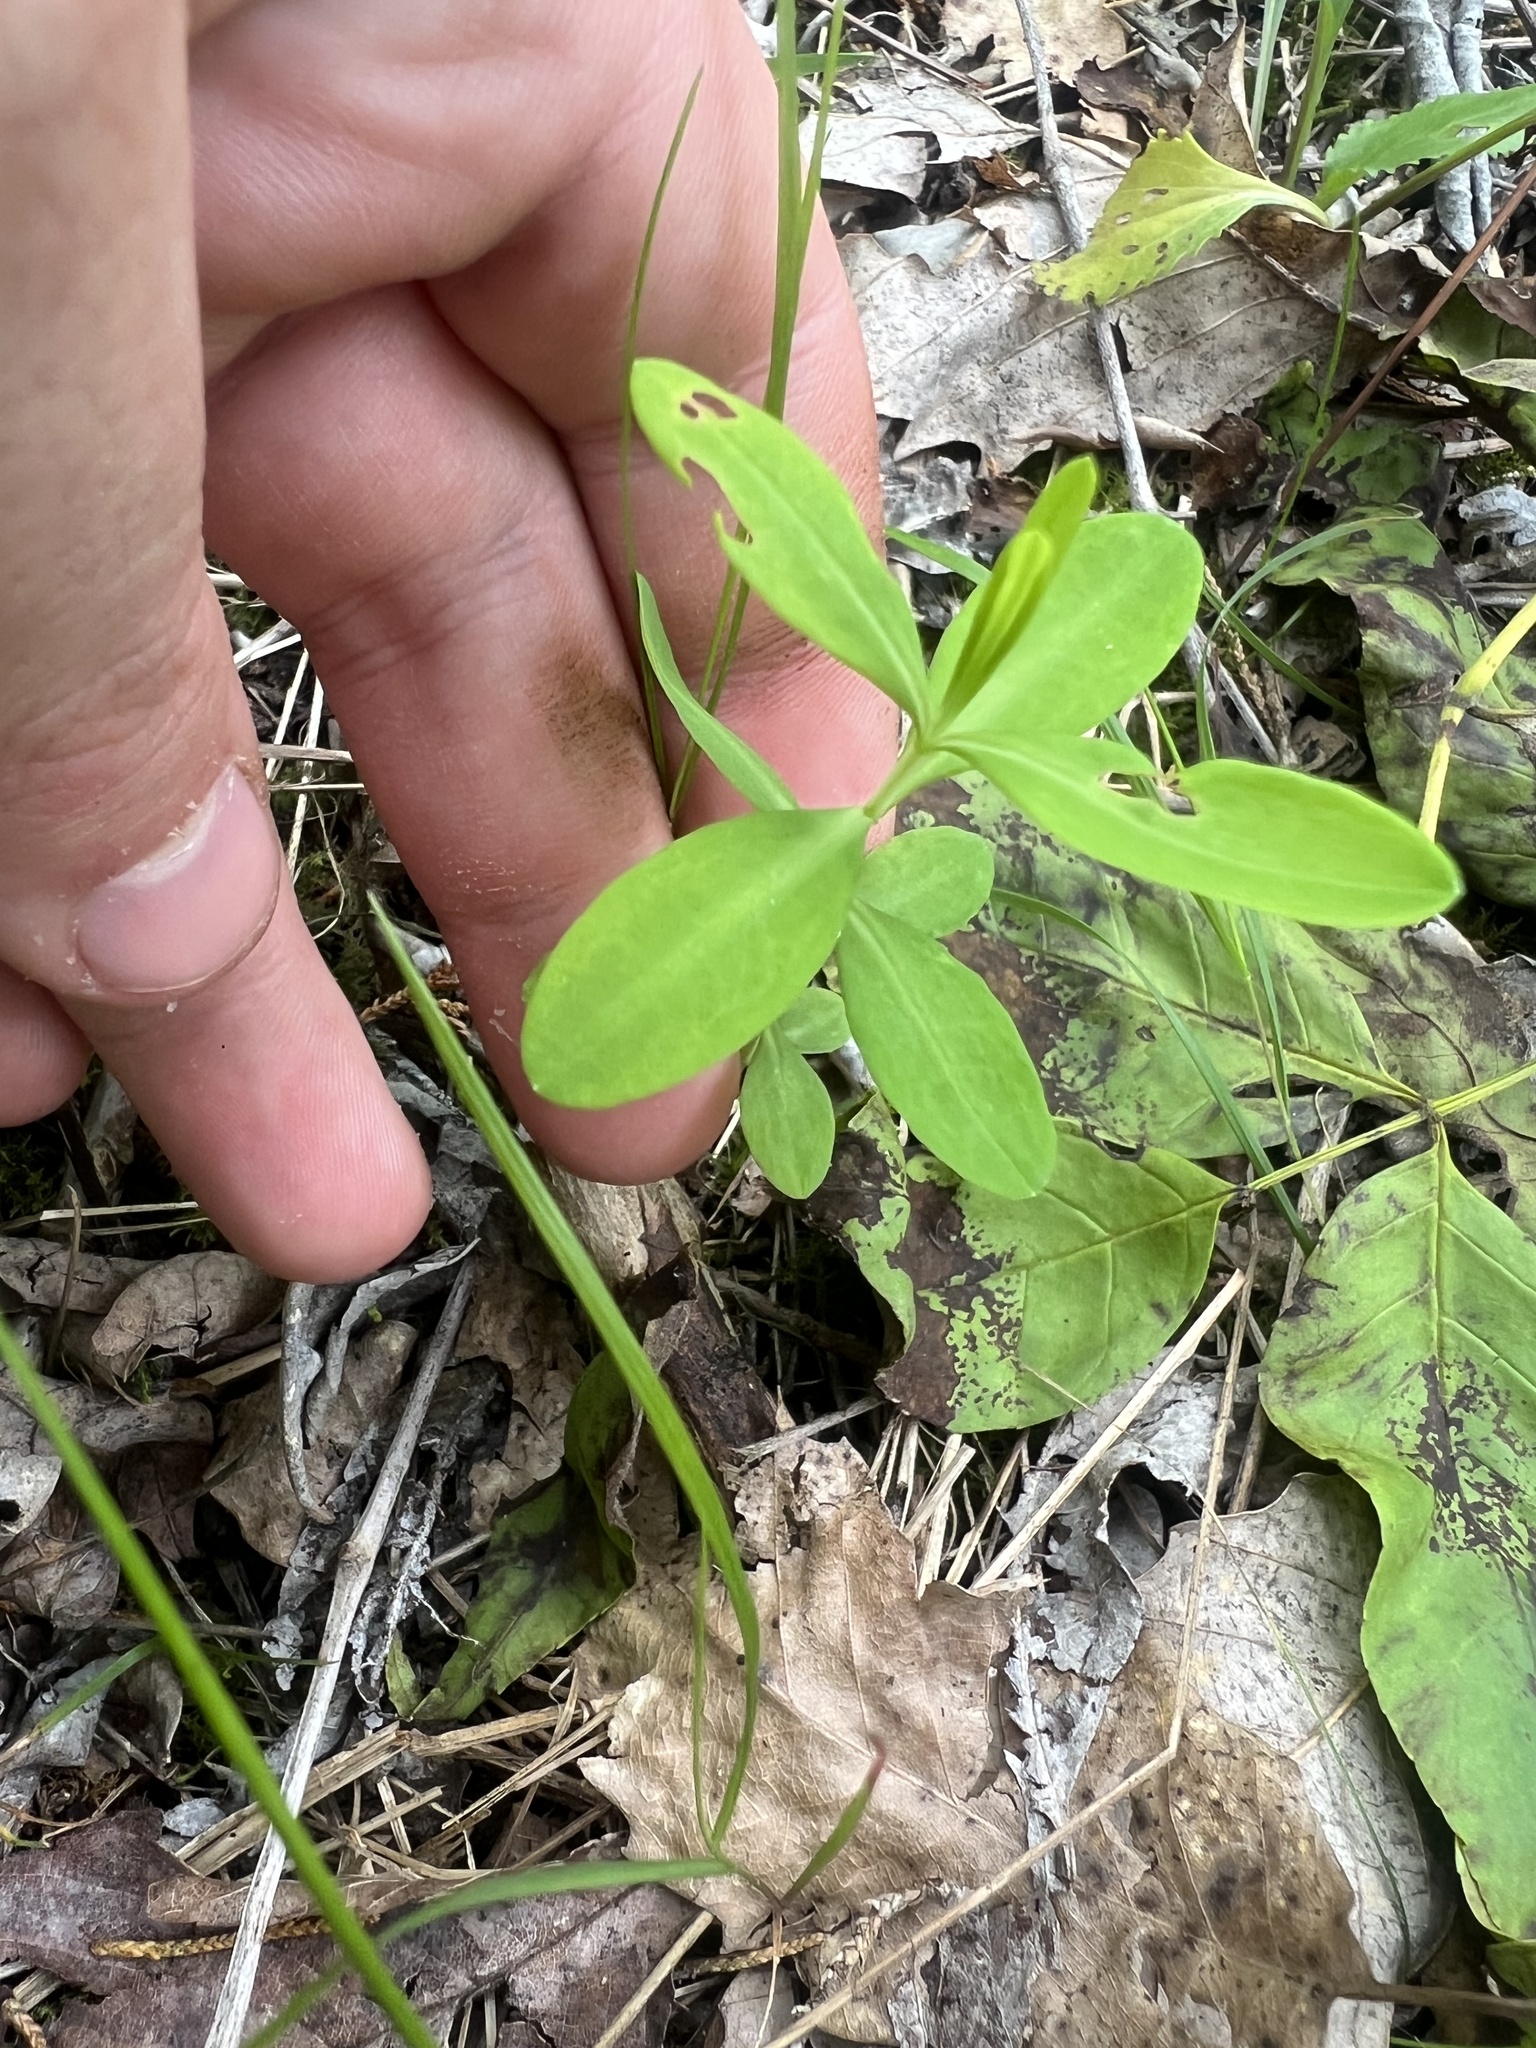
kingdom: Plantae
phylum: Tracheophyta
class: Magnoliopsida
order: Malpighiales
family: Hypericaceae
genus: Hypericum
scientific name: Hypericum frondosum
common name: Golden st. john's-wort
